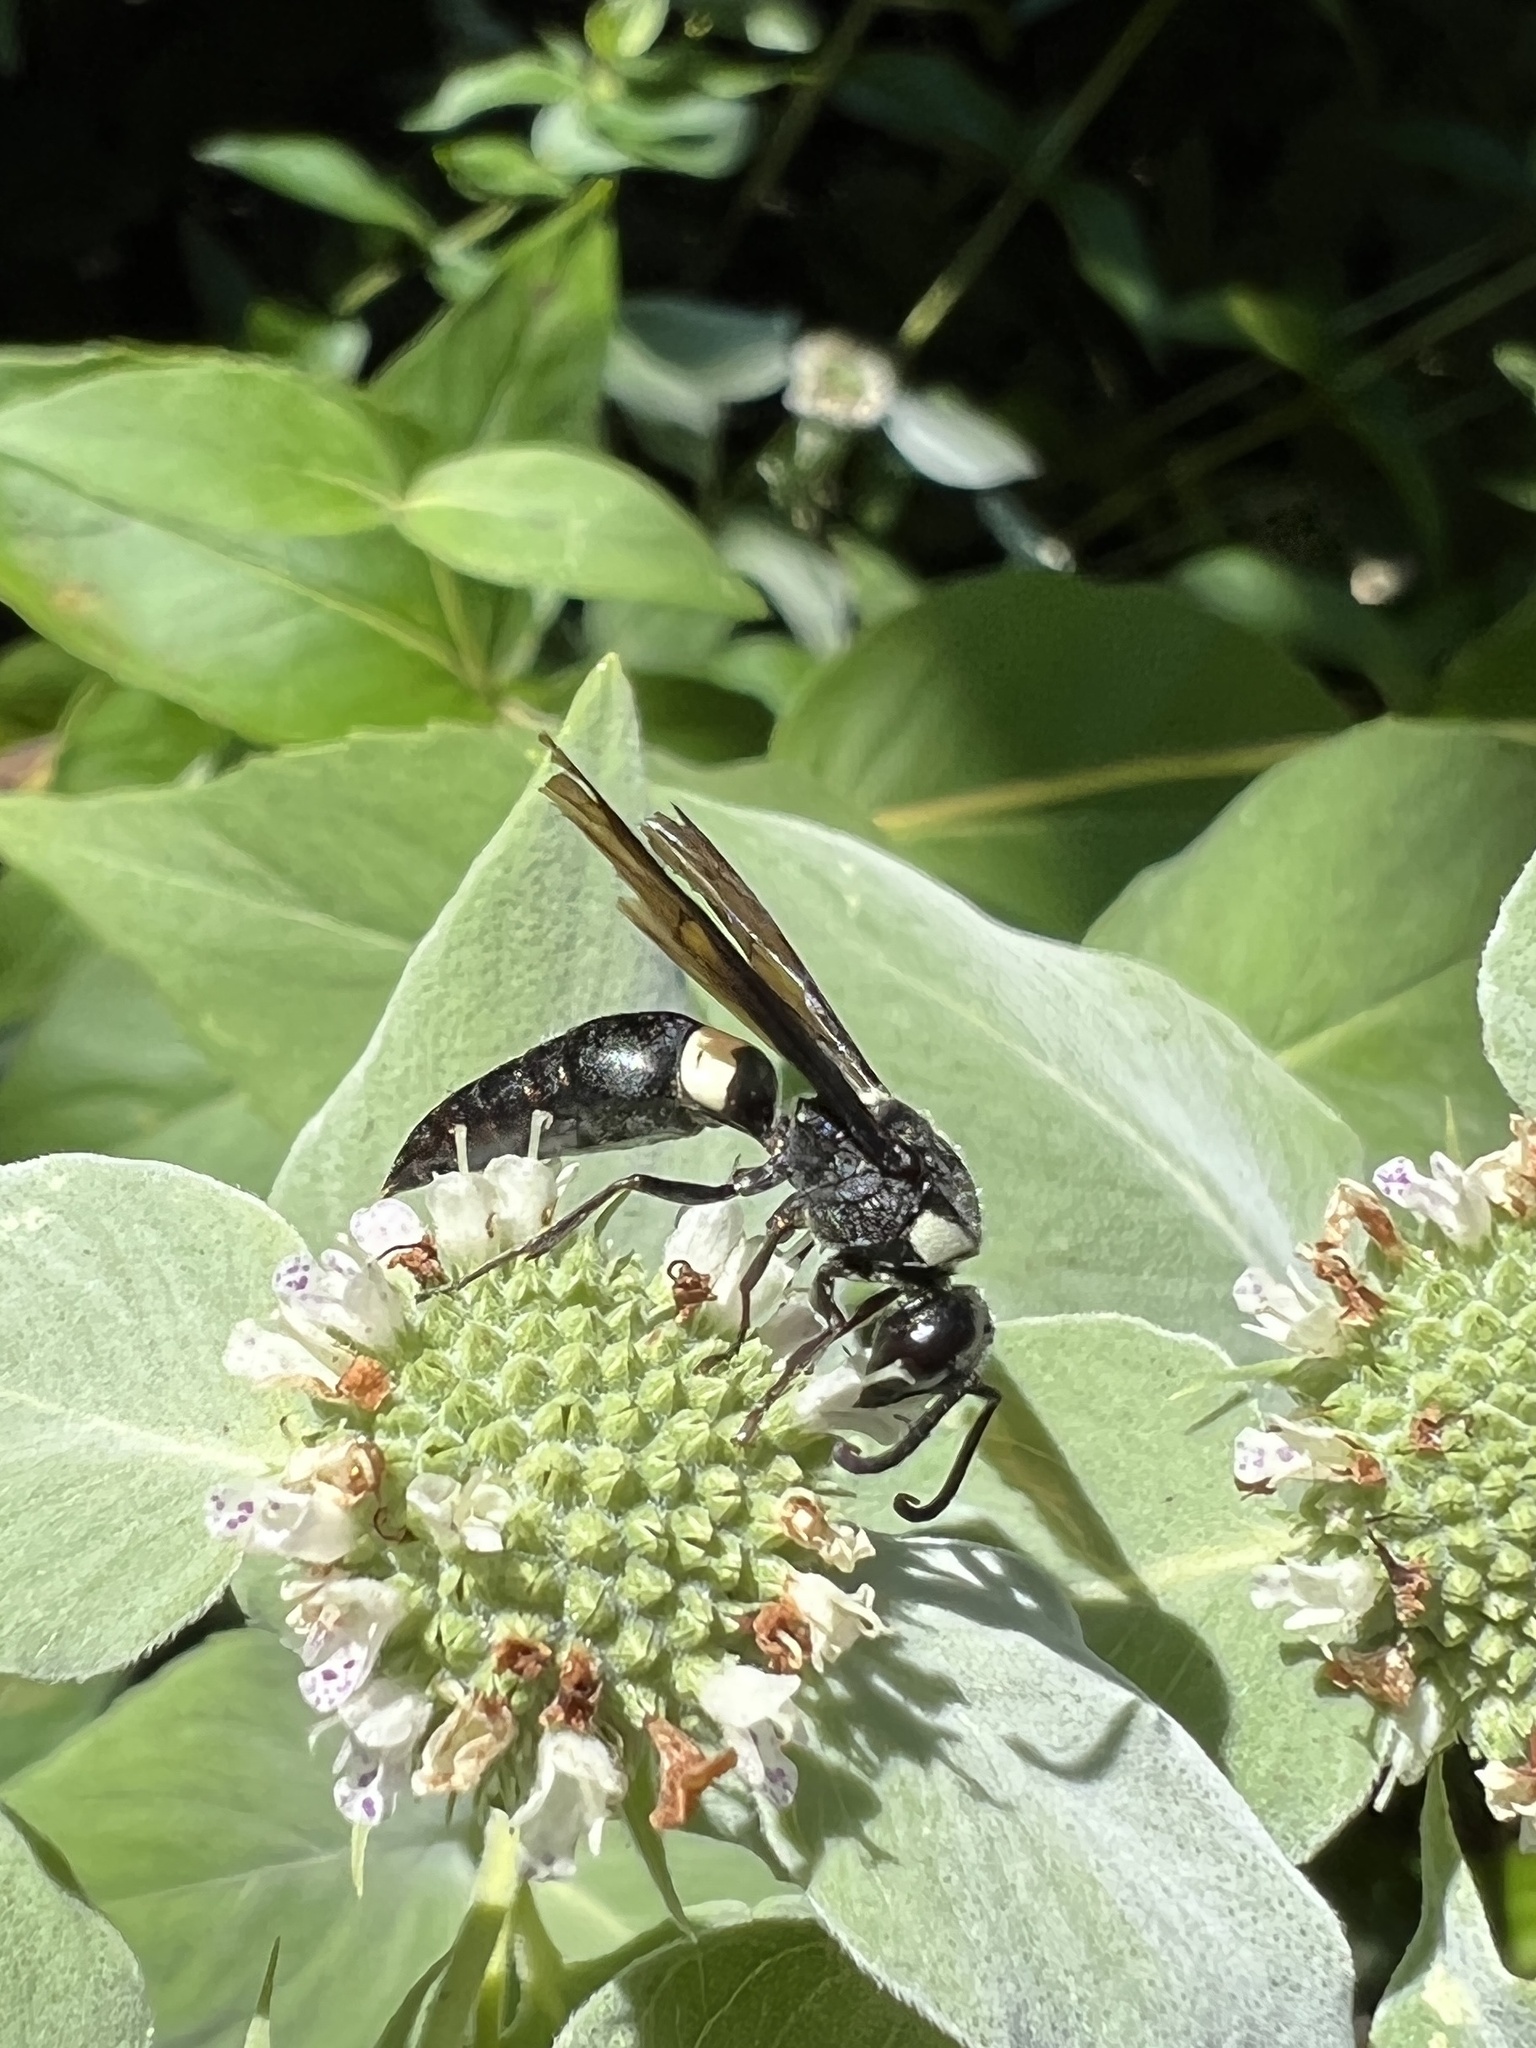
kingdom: Animalia
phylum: Arthropoda
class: Insecta
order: Hymenoptera
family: Eumenidae
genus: Monobia
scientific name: Monobia quadridens
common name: Four-toothed mason wasp
